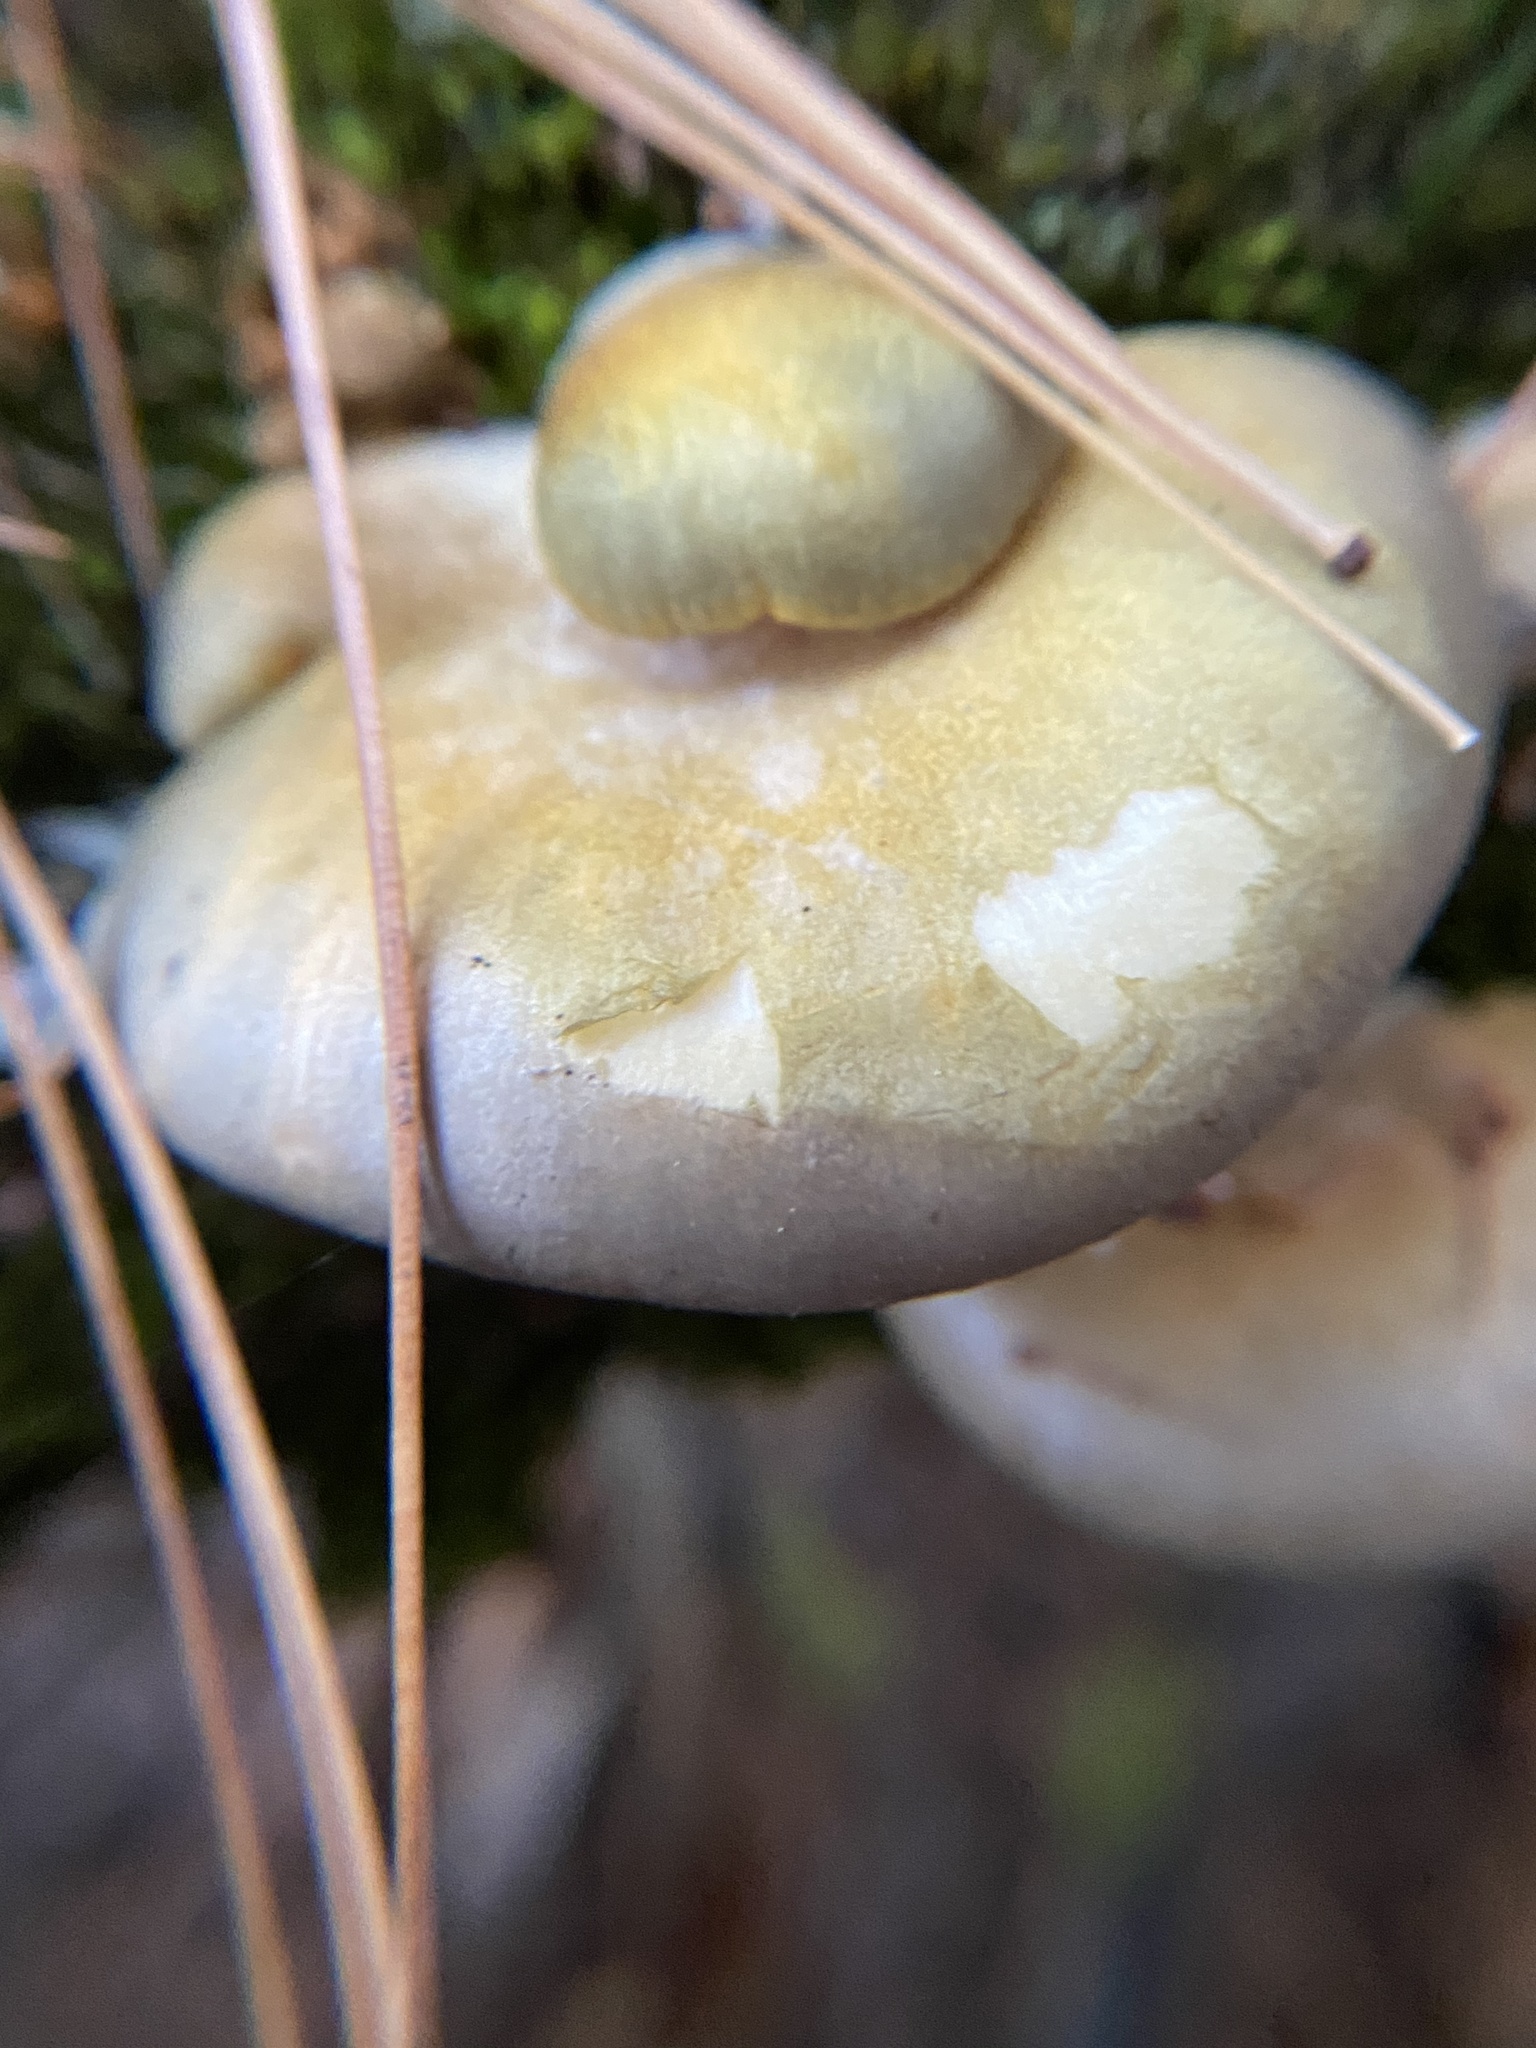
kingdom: Fungi
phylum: Basidiomycota
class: Agaricomycetes
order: Agaricales
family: Sarcomyxaceae
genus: Sarcomyxa
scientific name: Sarcomyxa serotina
